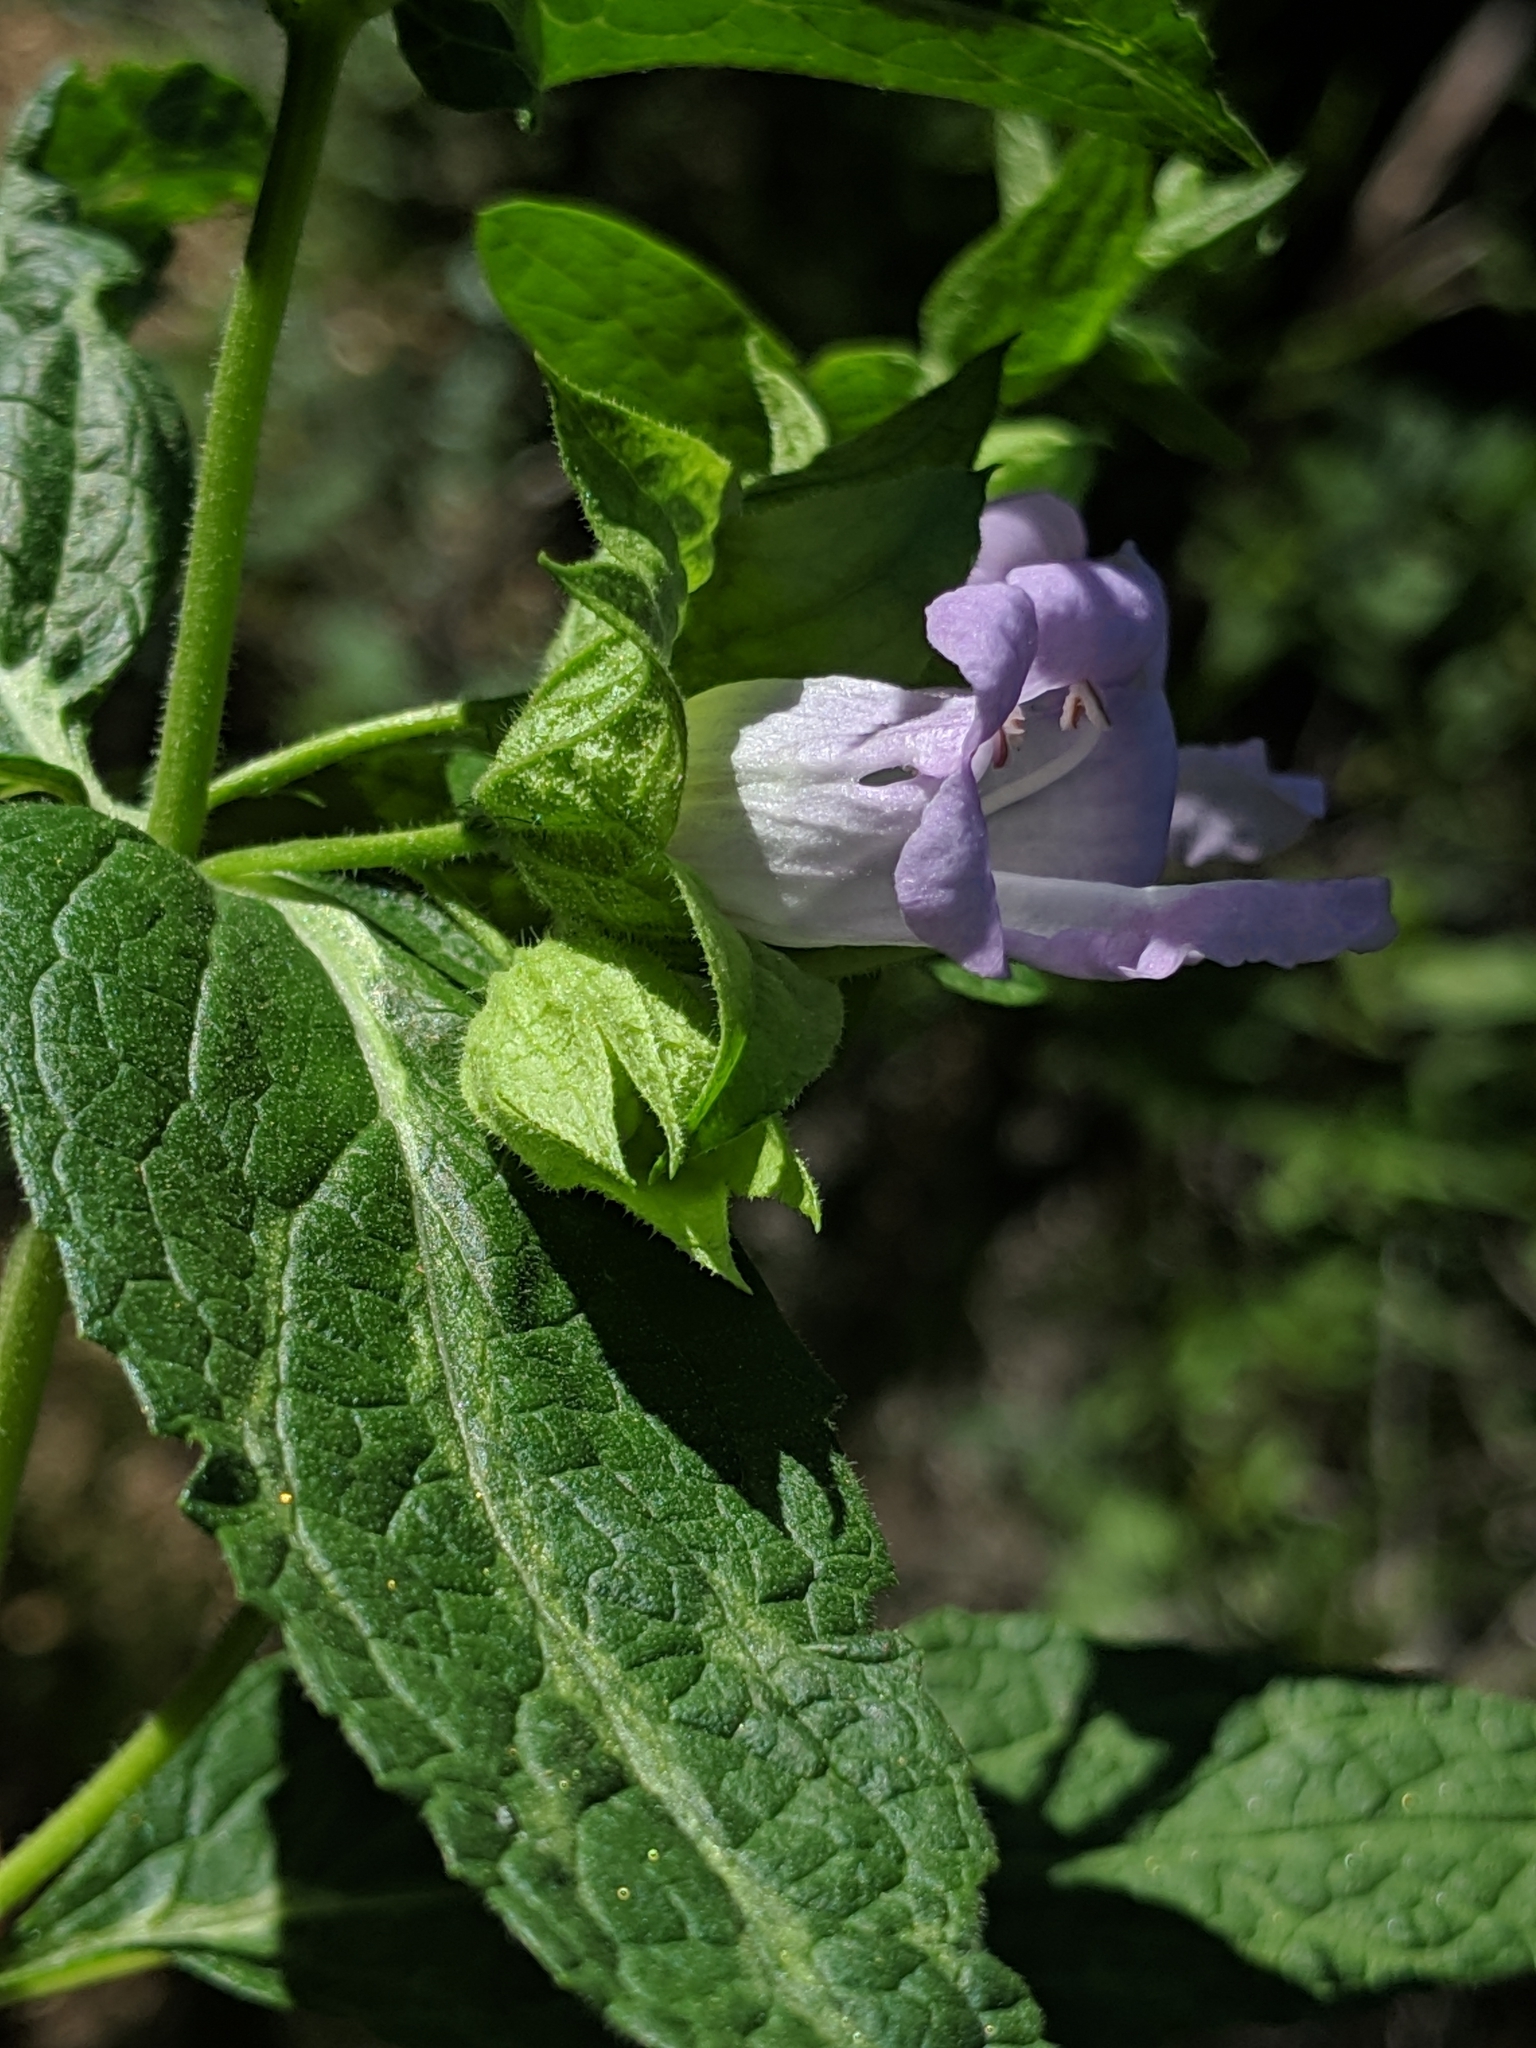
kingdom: Plantae
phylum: Tracheophyta
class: Magnoliopsida
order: Lamiales
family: Lamiaceae
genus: Lepechinia
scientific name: Lepechinia calycina
